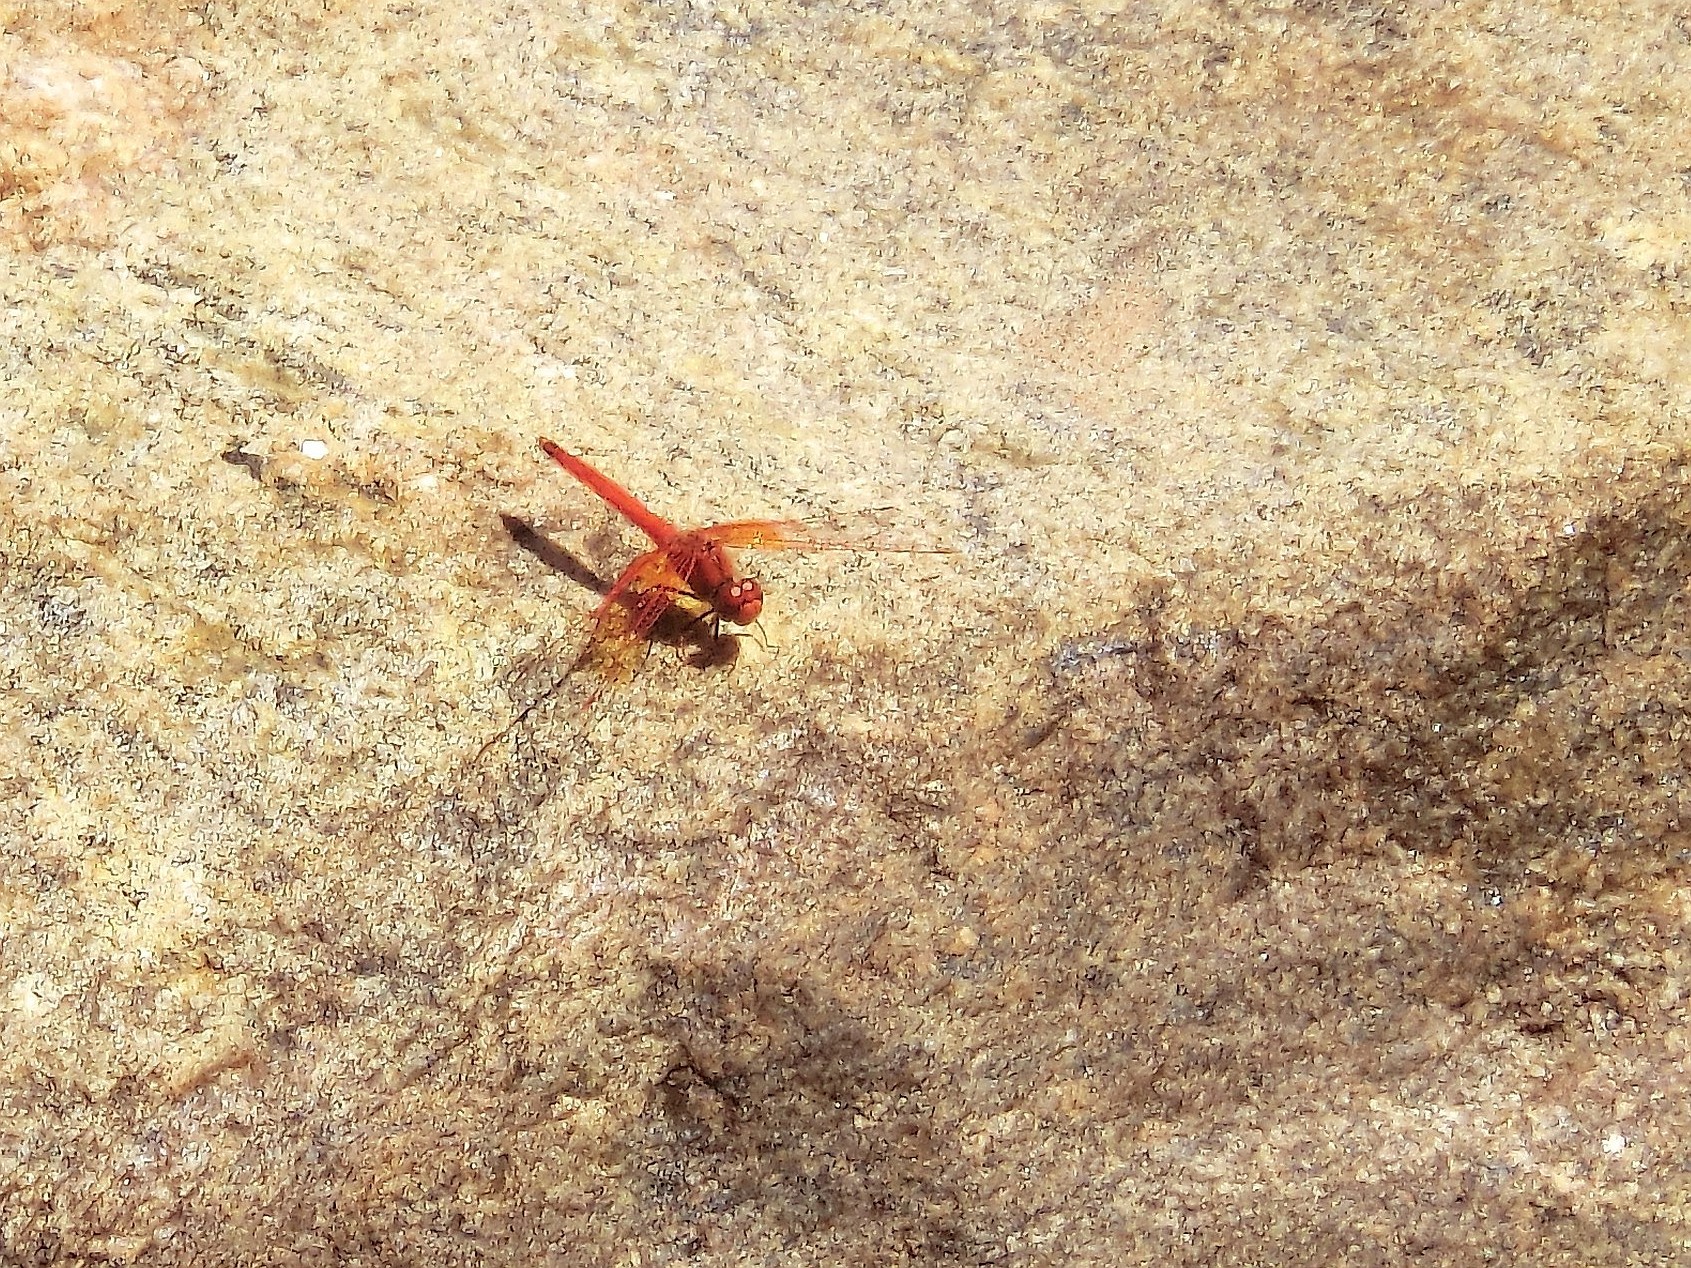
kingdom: Animalia
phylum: Arthropoda
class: Insecta
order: Odonata
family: Libellulidae
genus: Trithemis
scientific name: Trithemis kirbyi
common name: Kirby's dropwing
